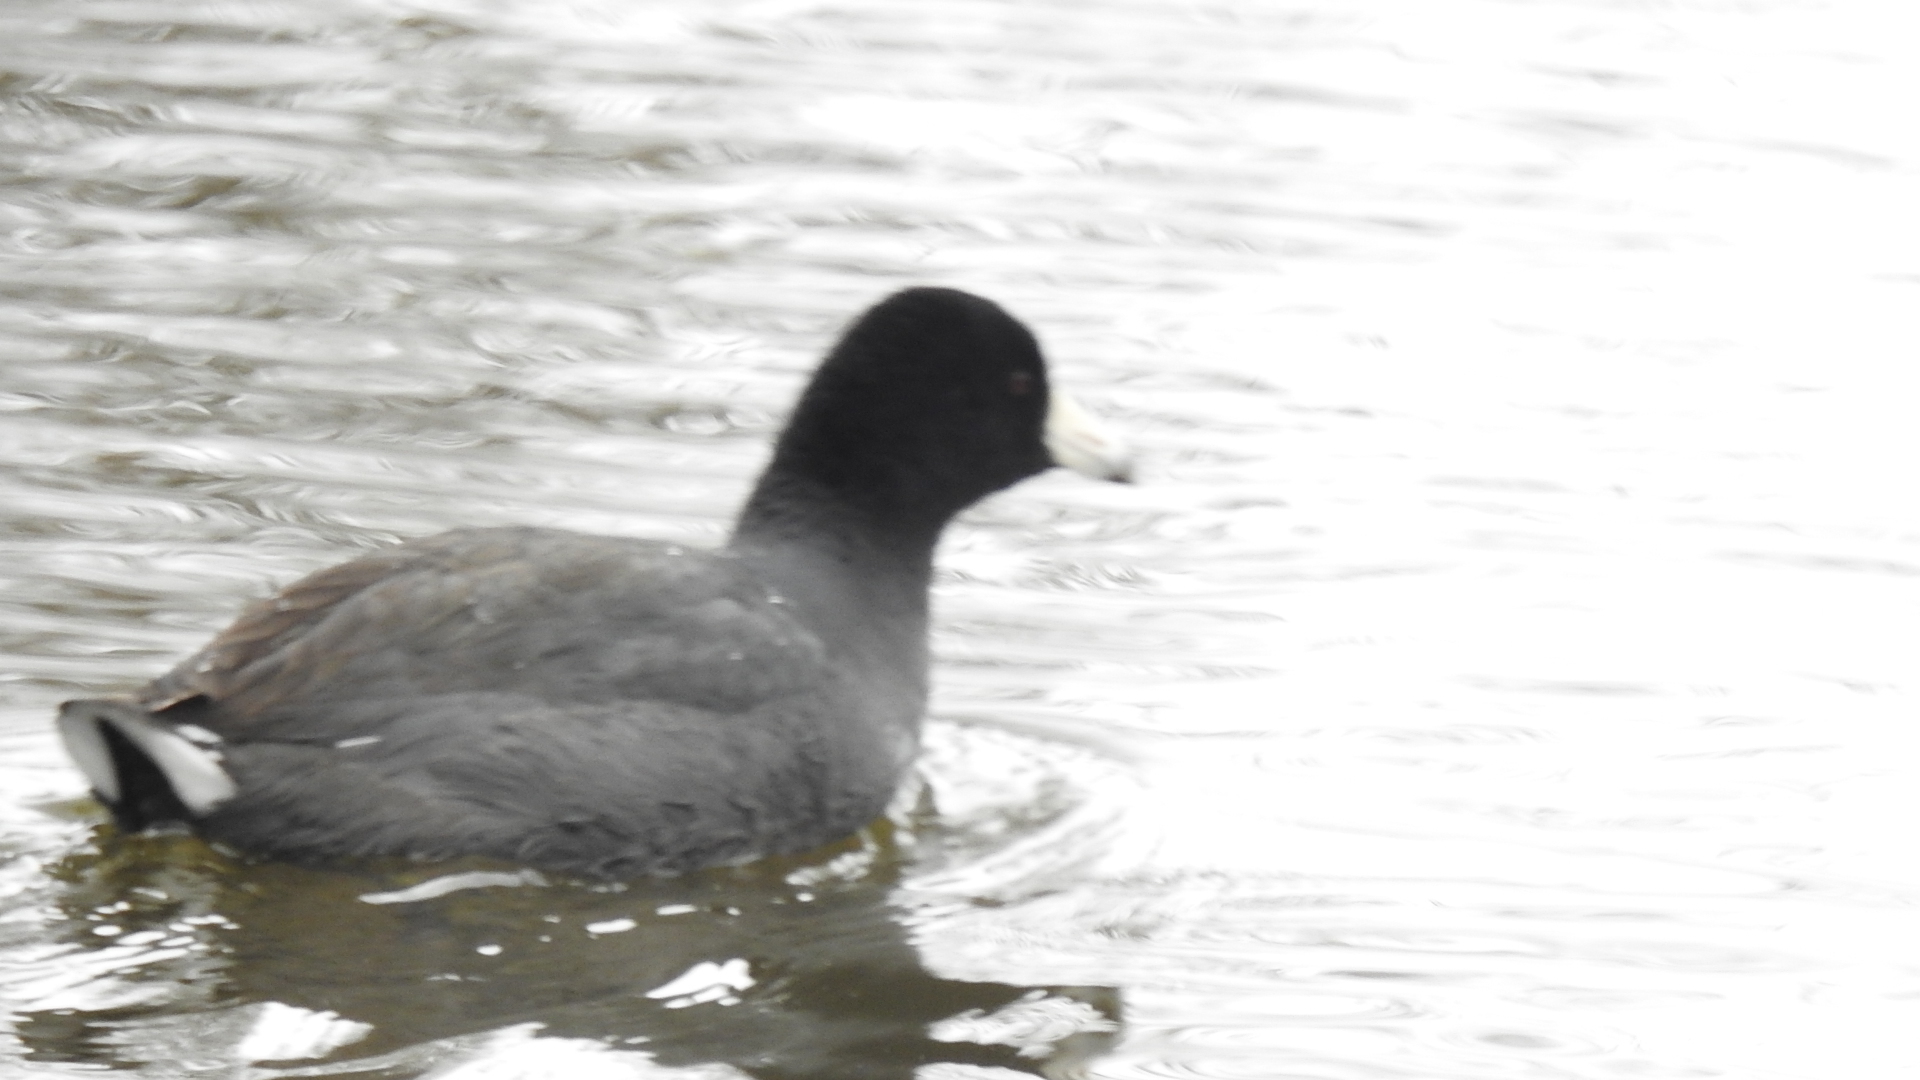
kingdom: Animalia
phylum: Chordata
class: Aves
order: Gruiformes
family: Rallidae
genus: Fulica
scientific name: Fulica americana
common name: American coot
